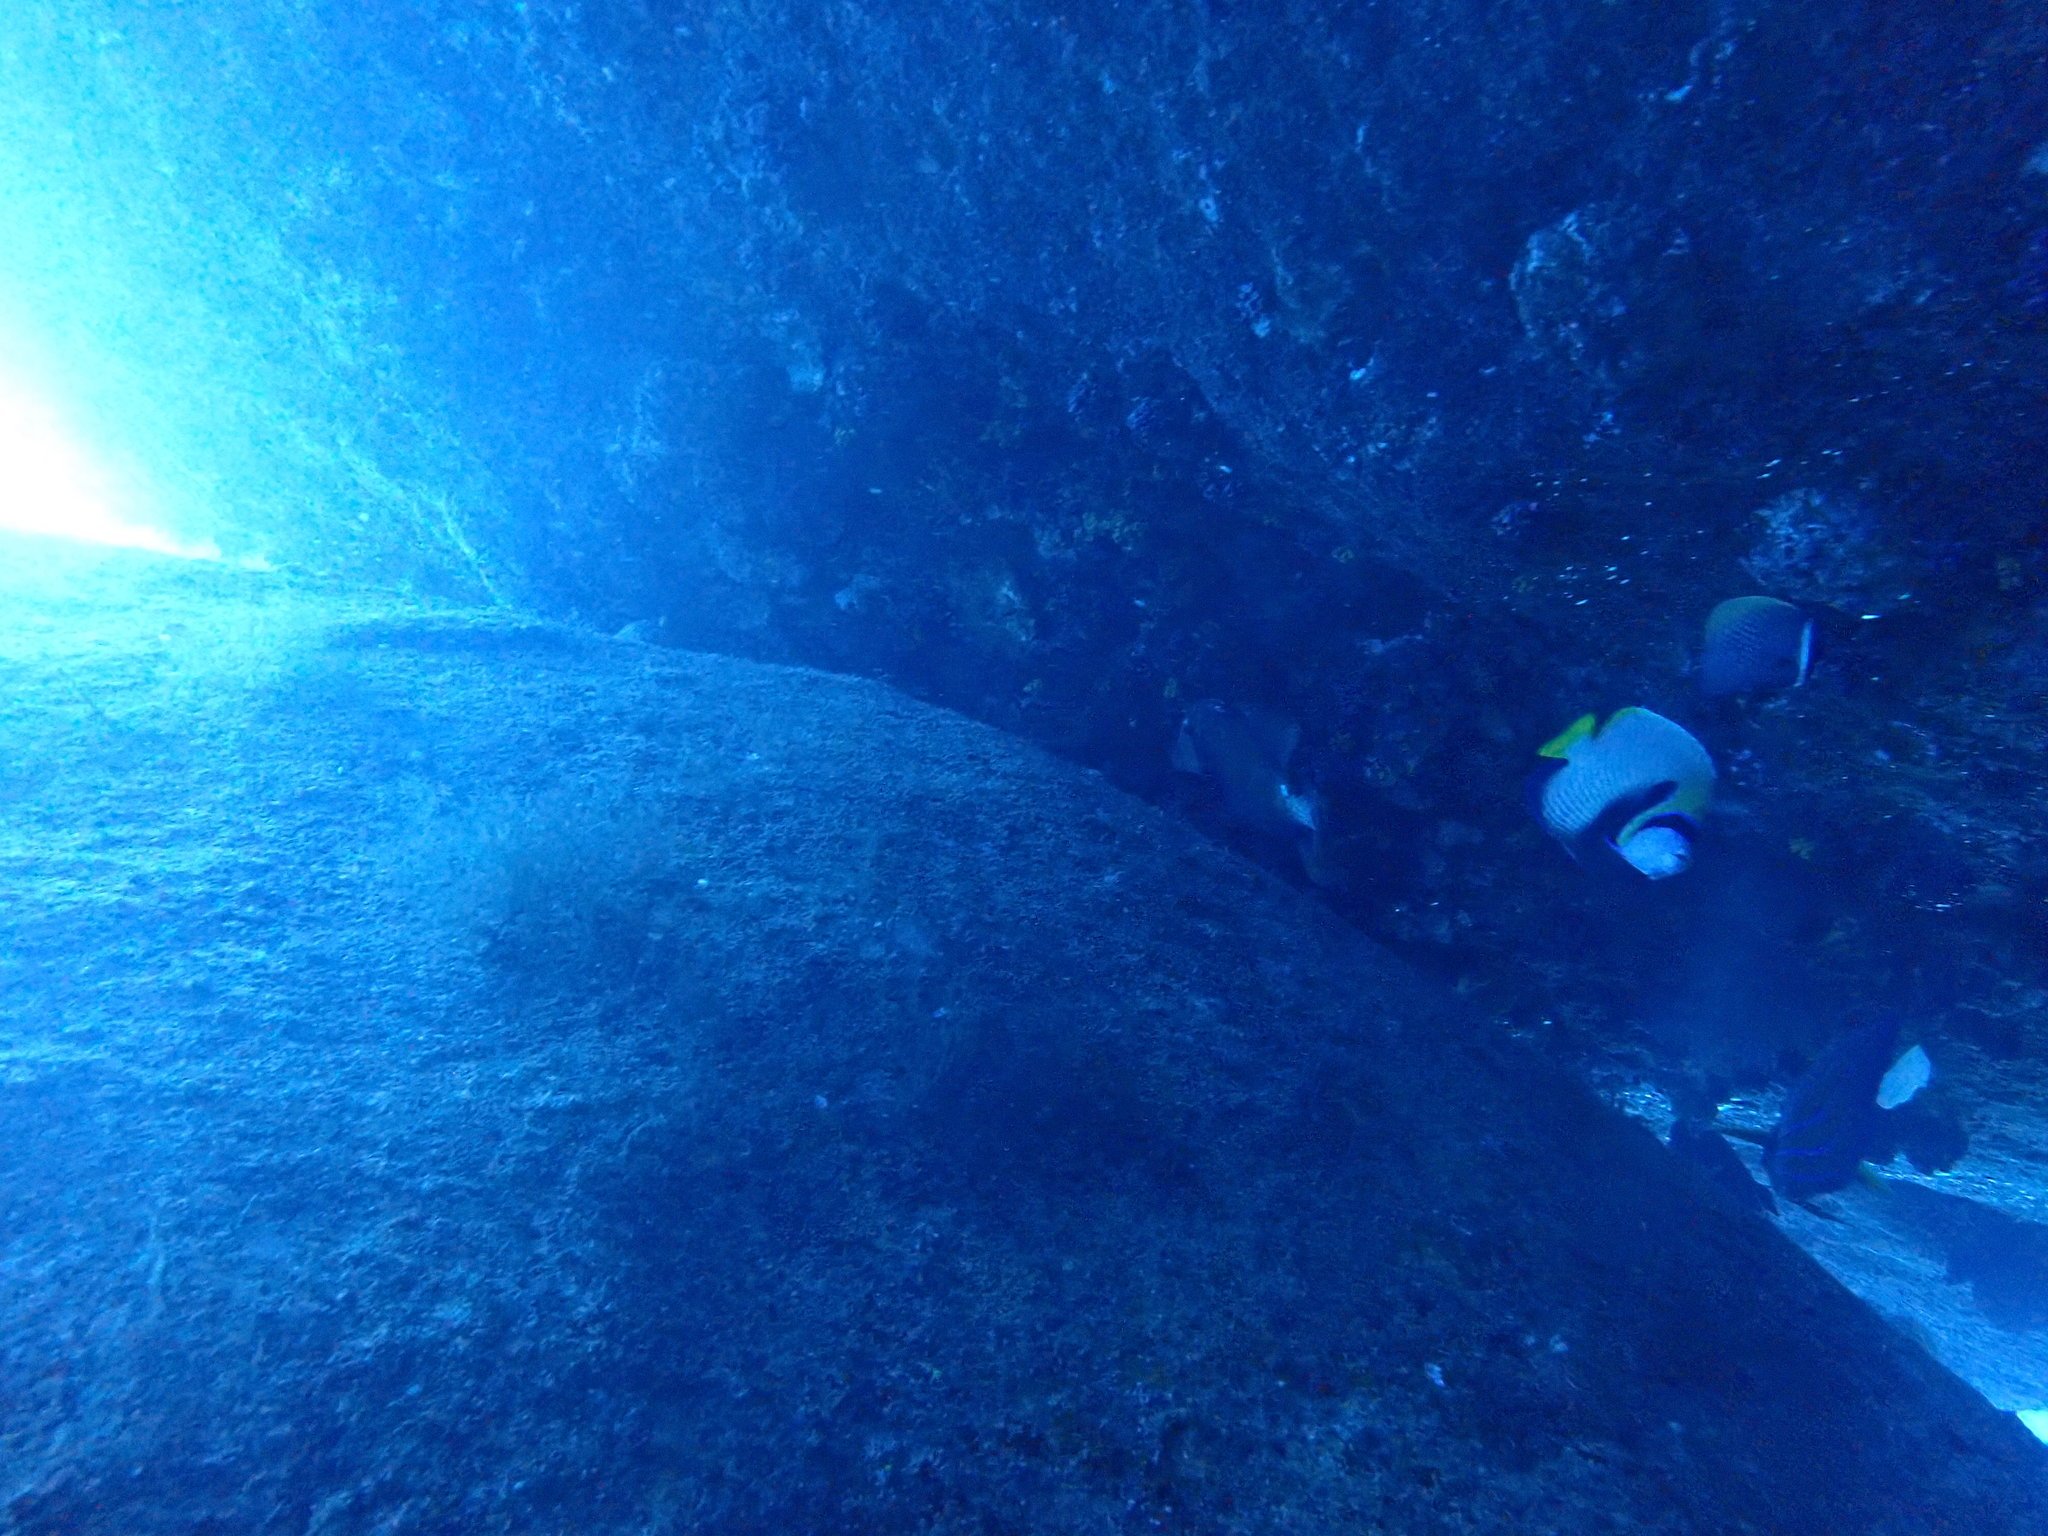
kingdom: Animalia
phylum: Chordata
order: Perciformes
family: Pomacanthidae
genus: Pomacanthus
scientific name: Pomacanthus imperator
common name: Emperor angelfish
